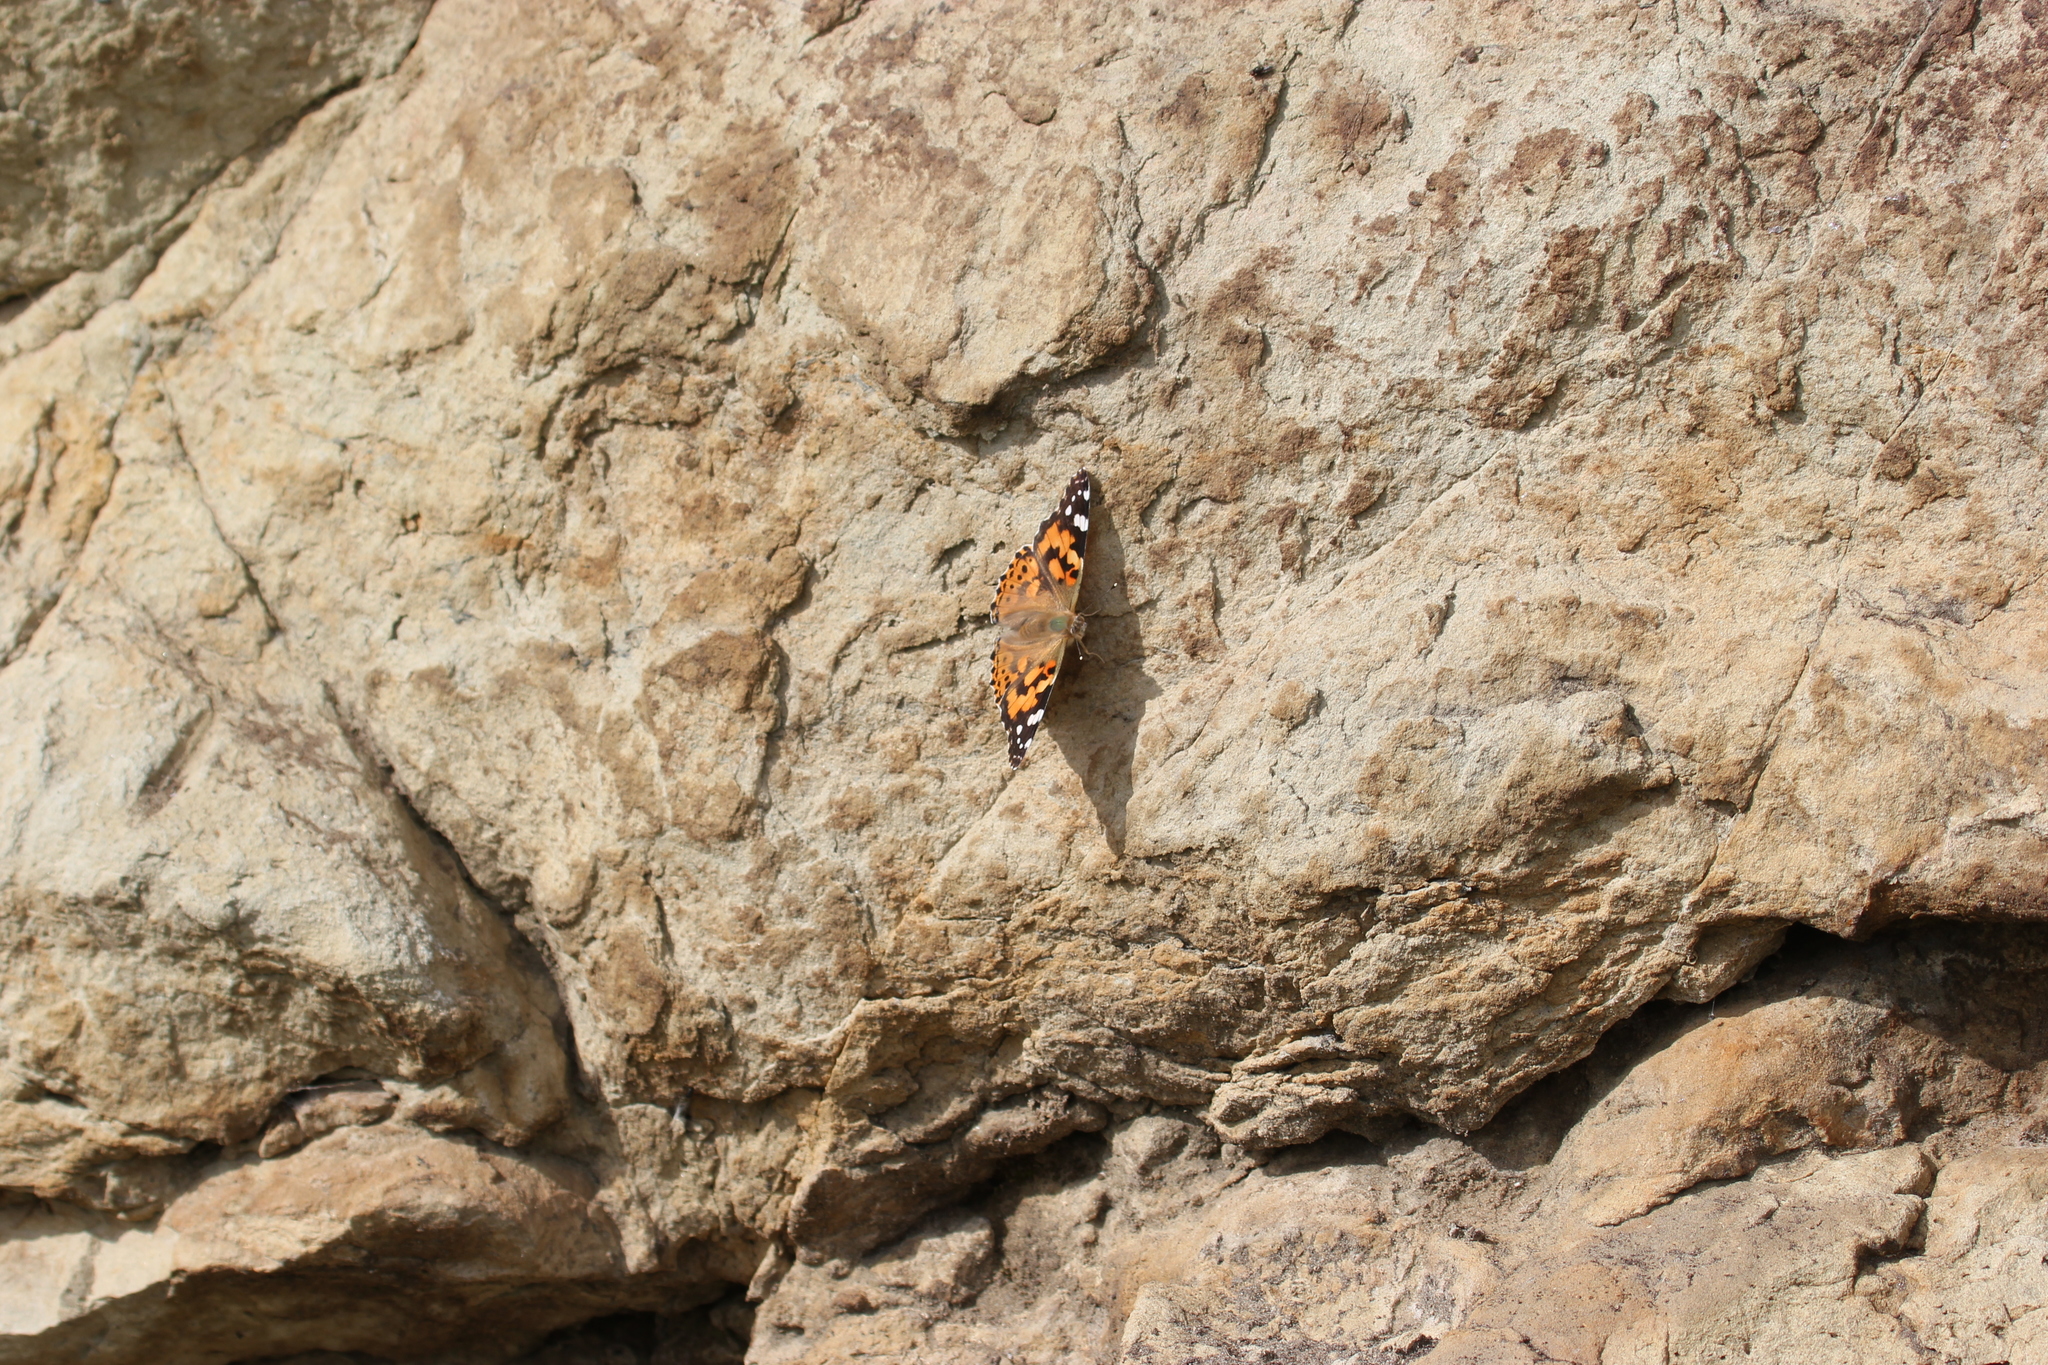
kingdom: Animalia
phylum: Arthropoda
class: Insecta
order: Lepidoptera
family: Nymphalidae
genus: Vanessa
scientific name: Vanessa cardui
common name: Painted lady
